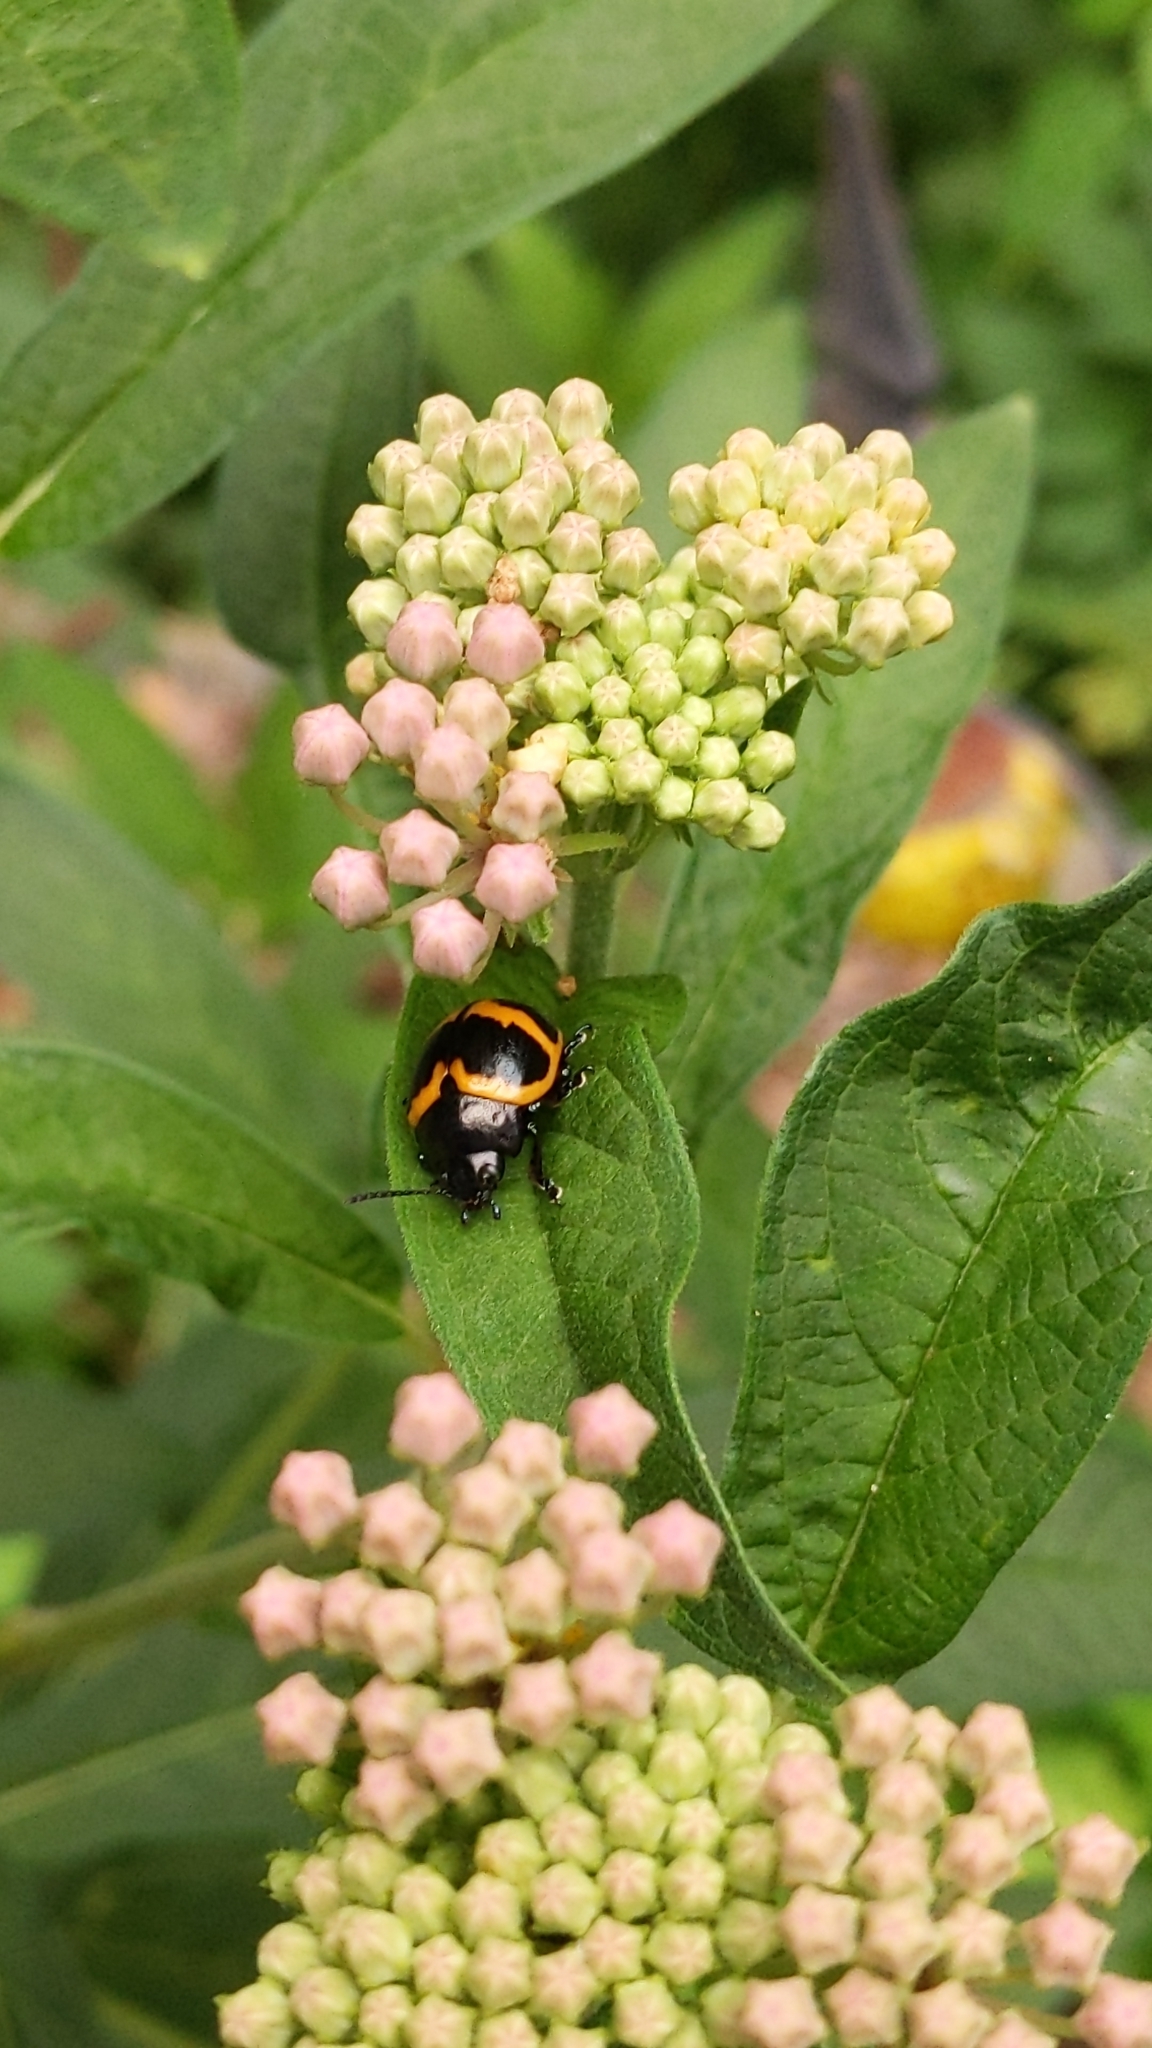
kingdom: Animalia
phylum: Arthropoda
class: Insecta
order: Coleoptera
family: Chrysomelidae
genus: Labidomera
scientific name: Labidomera clivicollis
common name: Swamp milkweed leaf beetle
